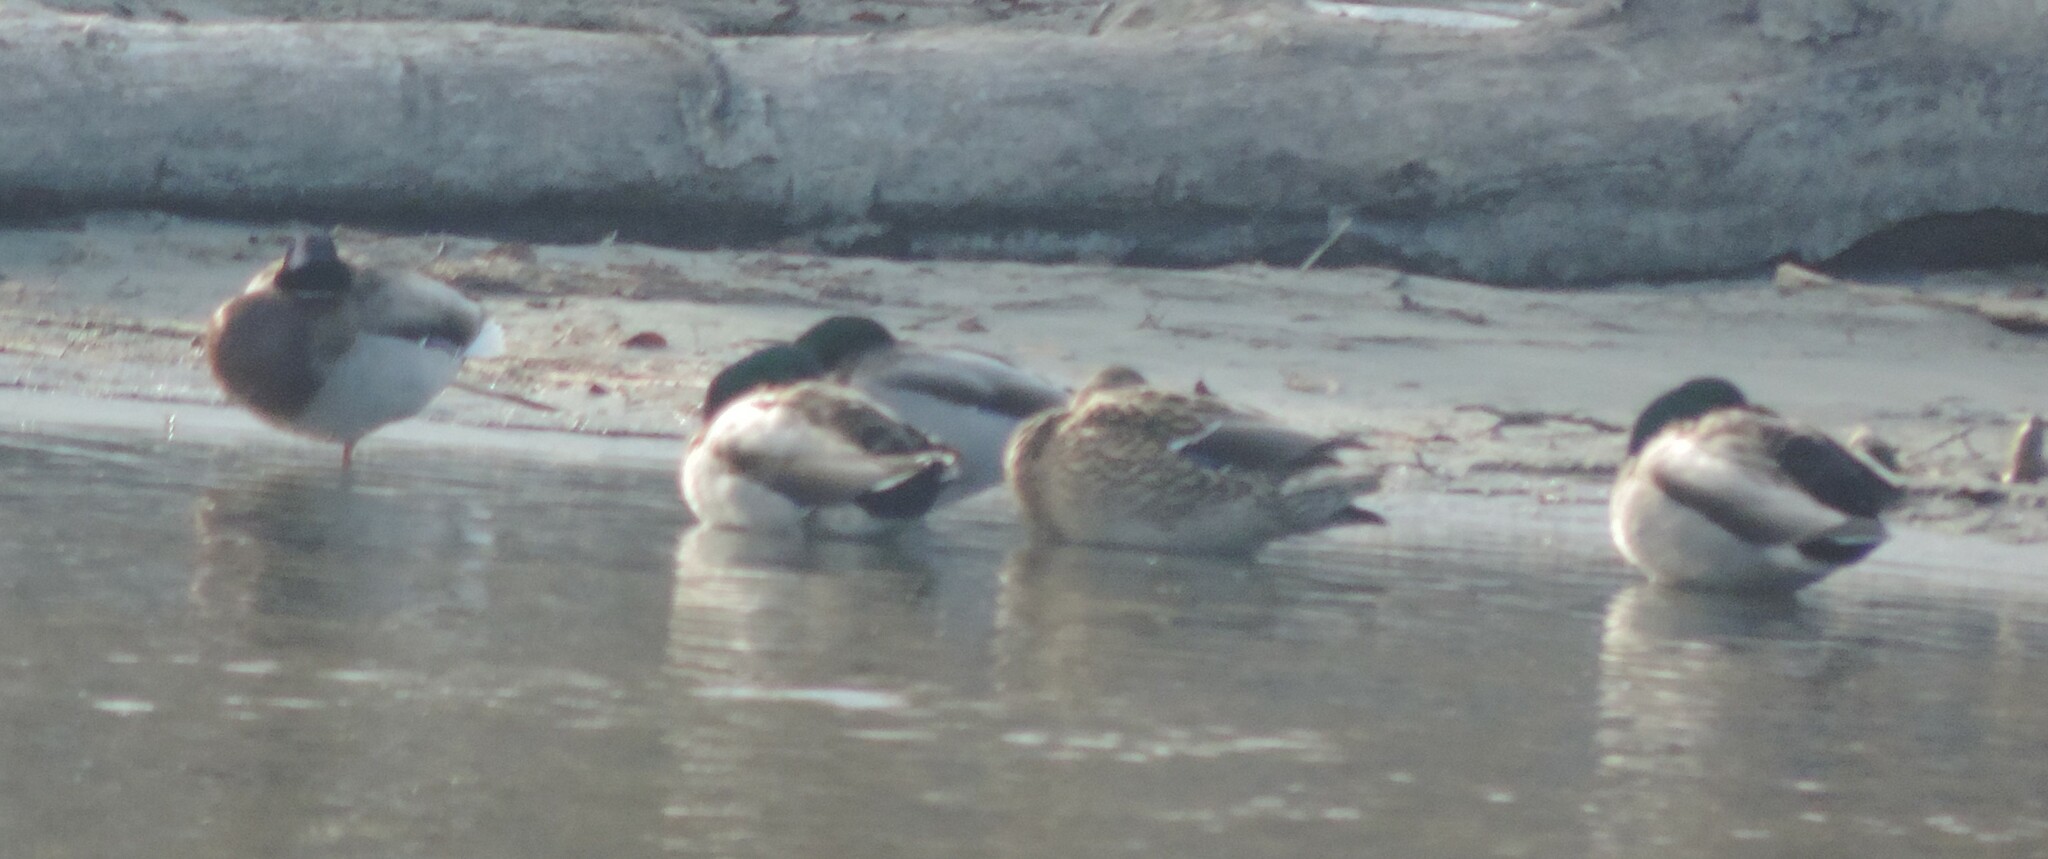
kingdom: Animalia
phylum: Chordata
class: Aves
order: Anseriformes
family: Anatidae
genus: Anas
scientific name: Anas platyrhynchos
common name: Mallard
